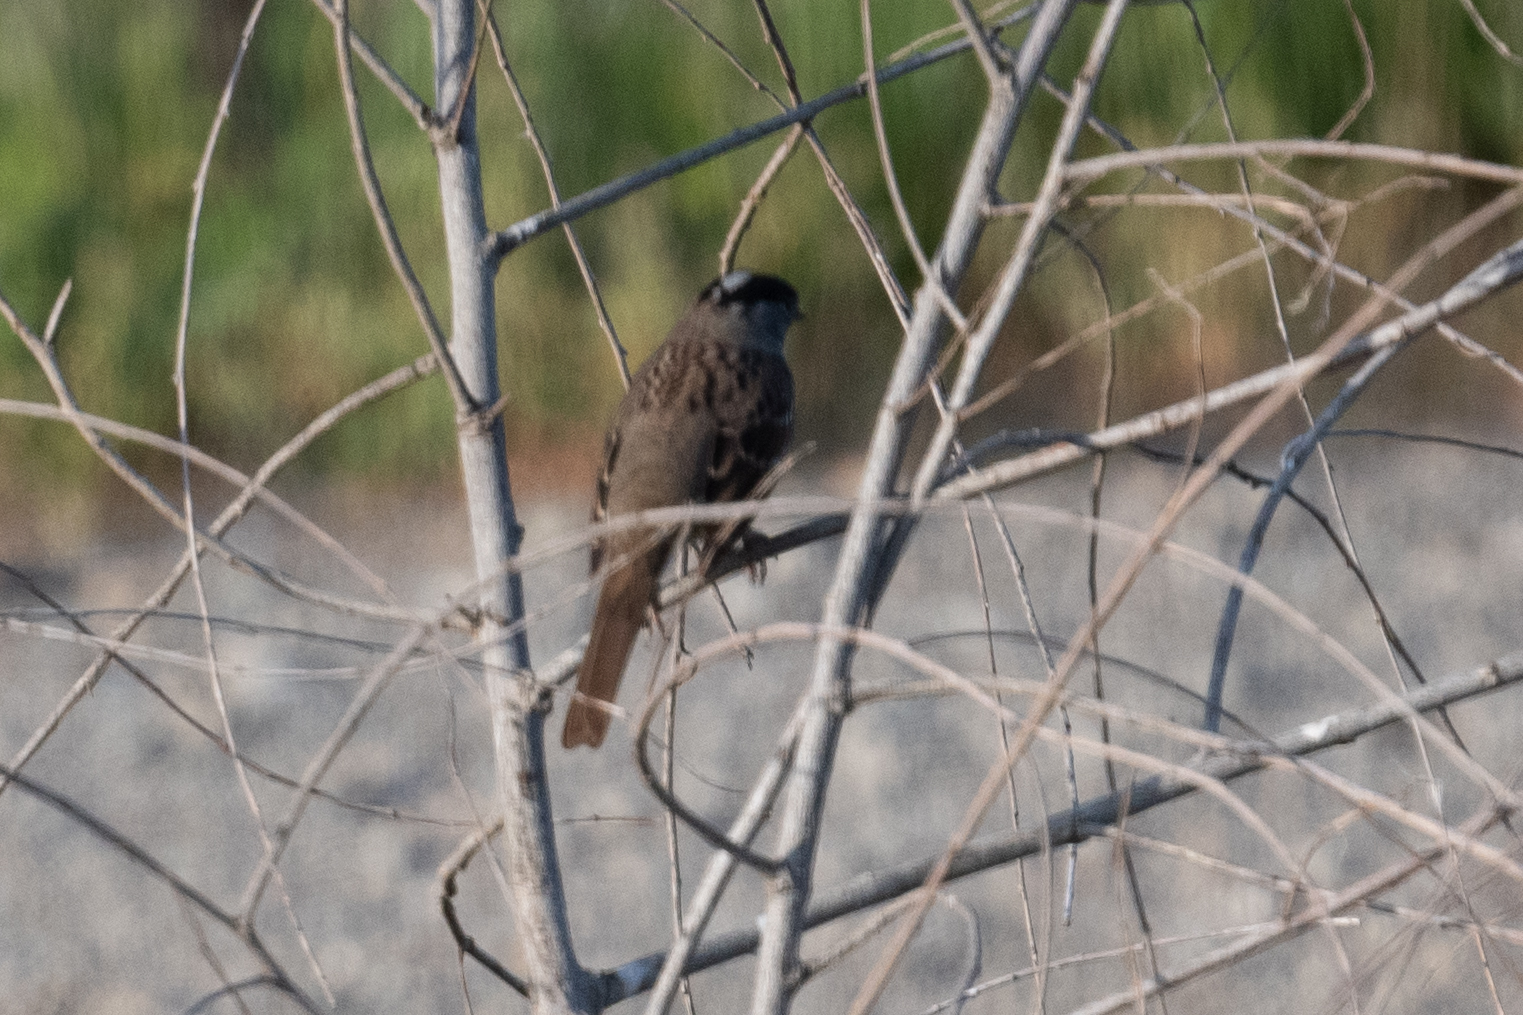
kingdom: Animalia
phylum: Chordata
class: Aves
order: Passeriformes
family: Passerellidae
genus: Zonotrichia
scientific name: Zonotrichia atricapilla
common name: Golden-crowned sparrow
